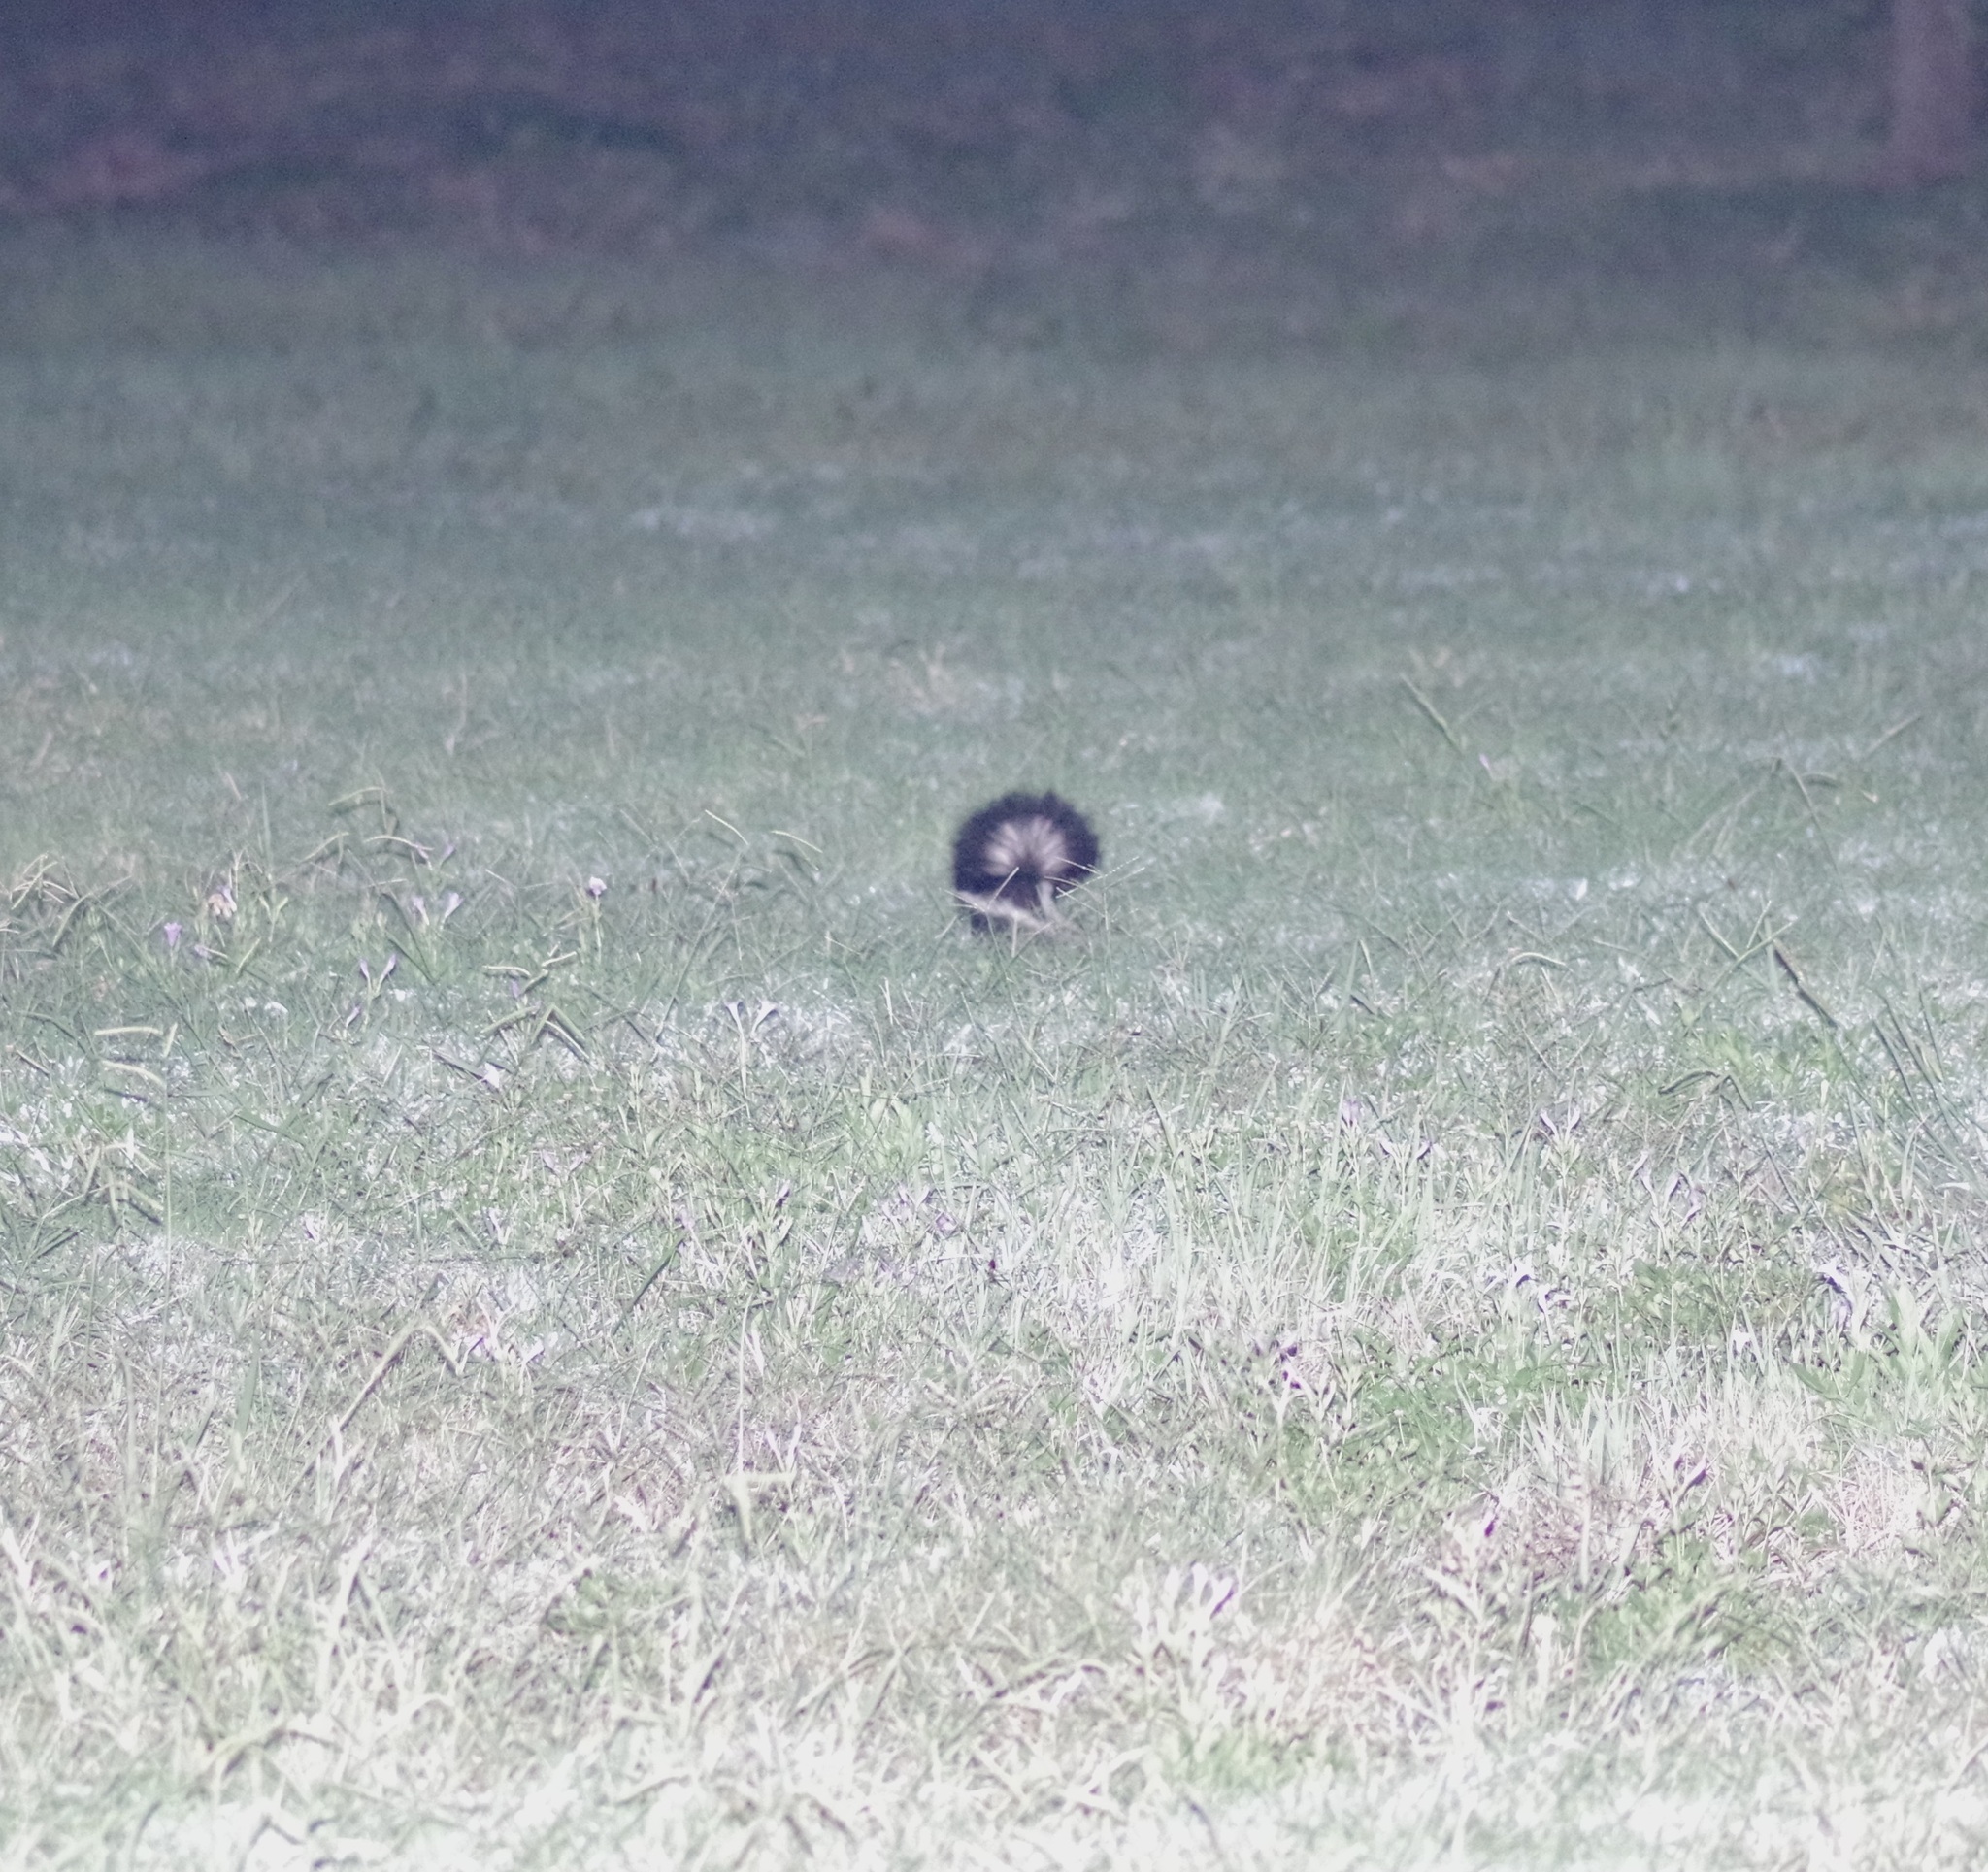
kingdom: Animalia
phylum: Chordata
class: Mammalia
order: Carnivora
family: Mephitidae
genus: Mephitis
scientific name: Mephitis mephitis
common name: Striped skunk
